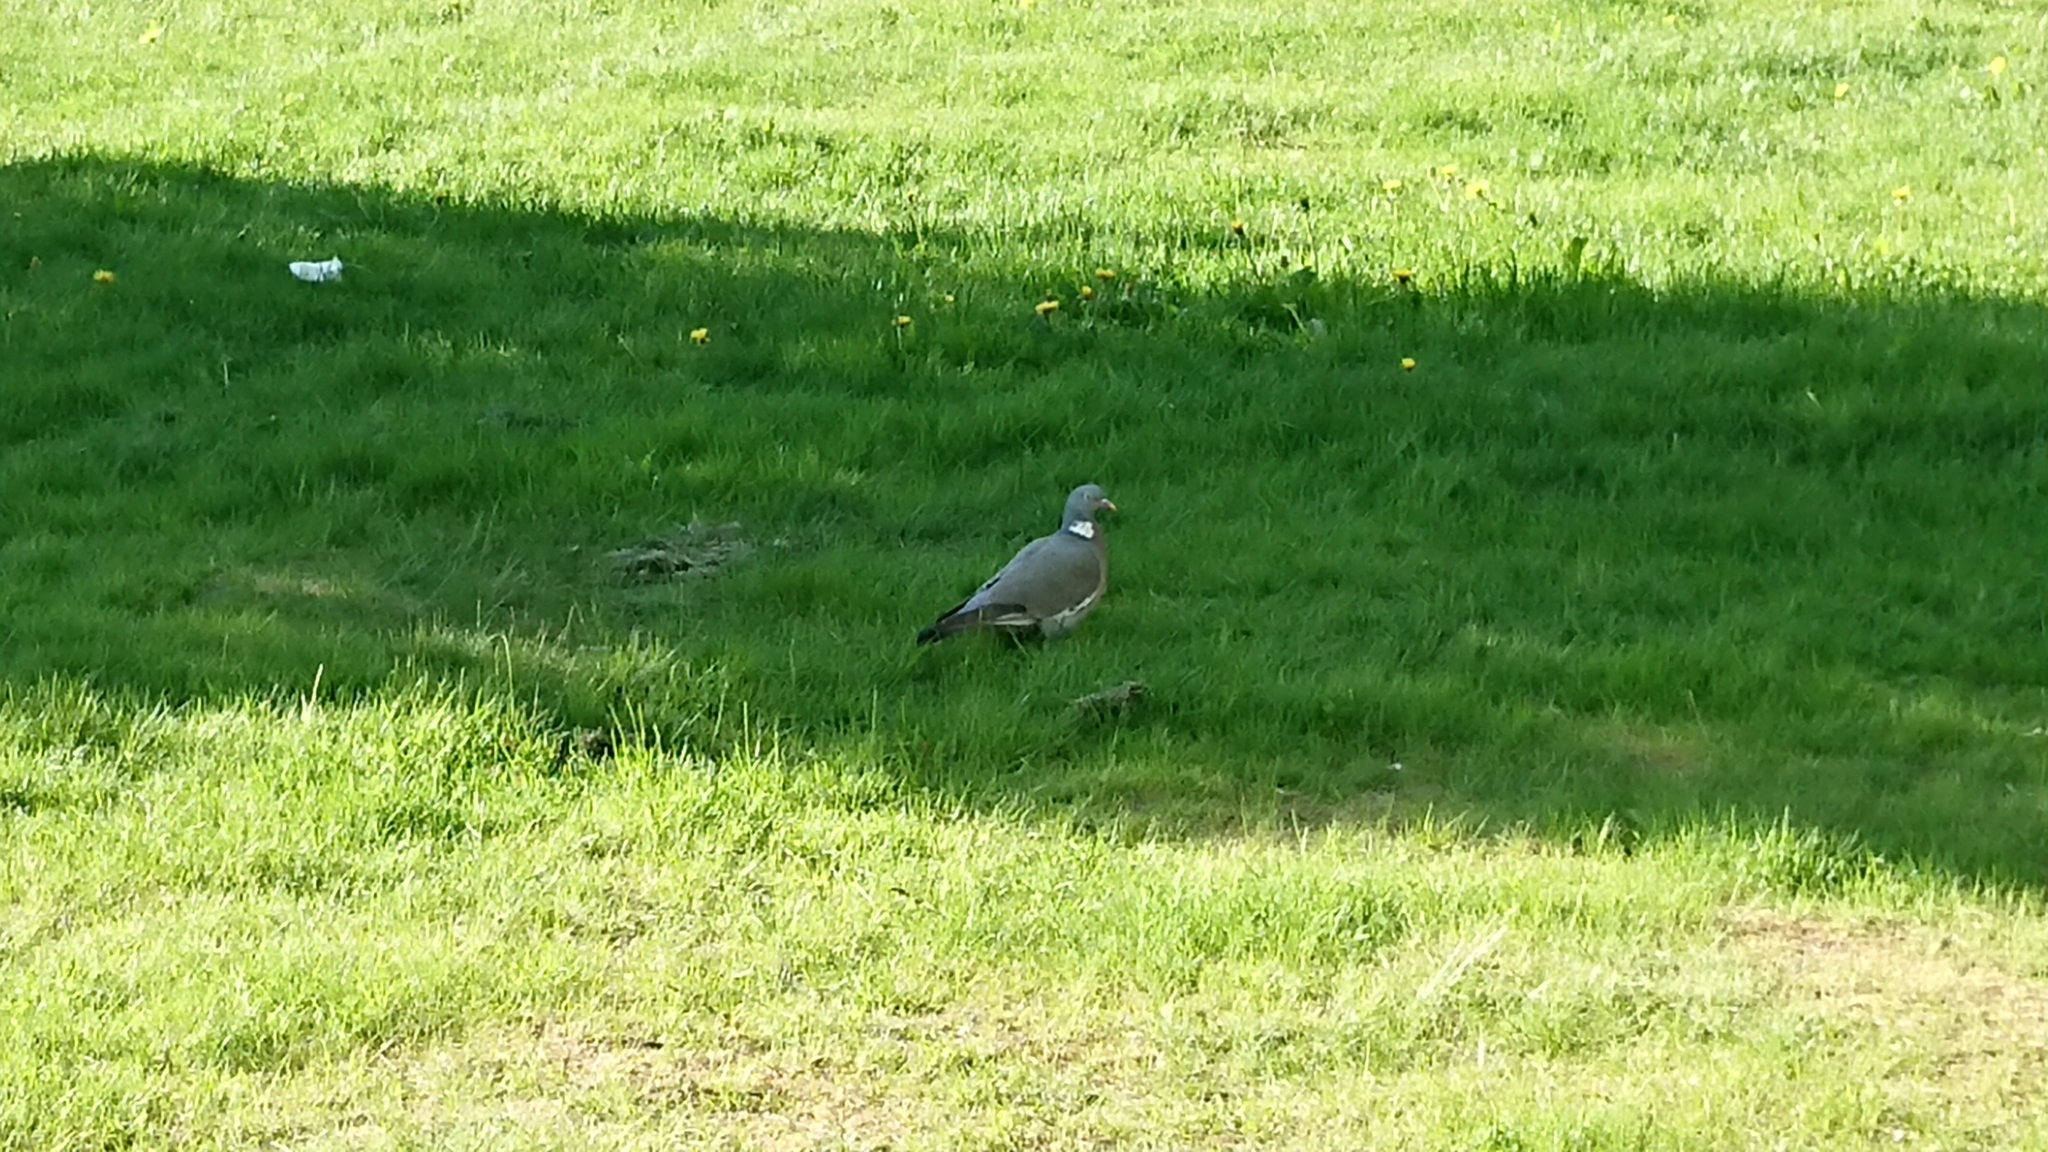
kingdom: Animalia
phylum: Chordata
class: Aves
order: Columbiformes
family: Columbidae
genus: Columba
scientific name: Columba palumbus
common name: Common wood pigeon
